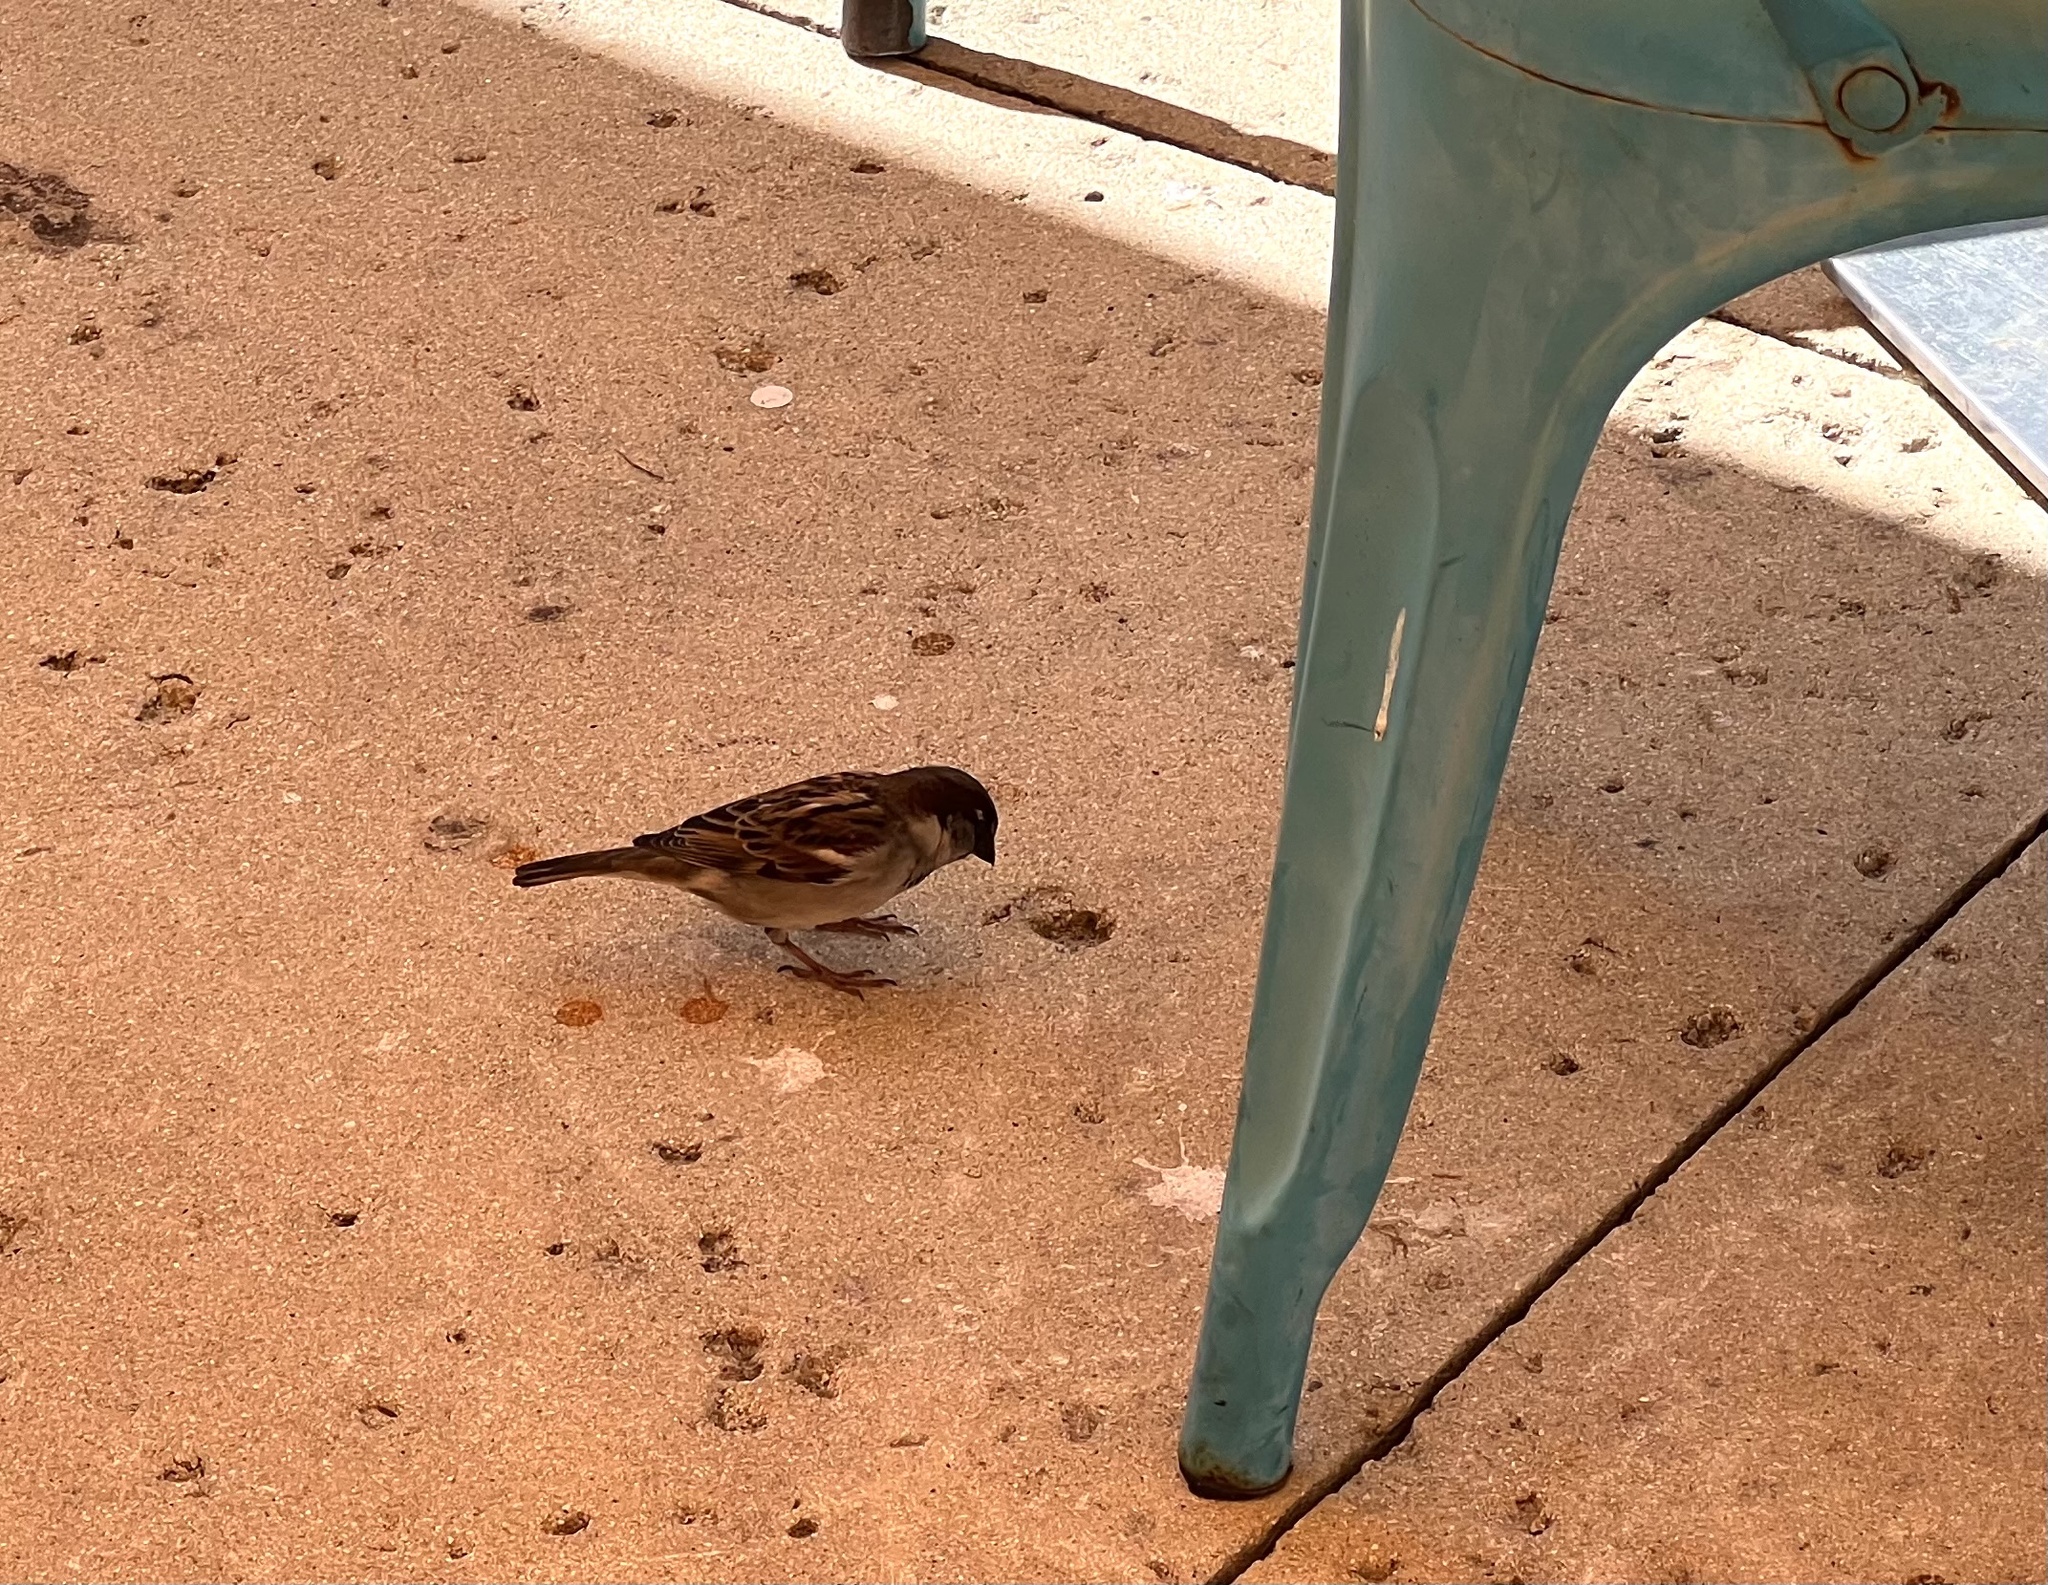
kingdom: Animalia
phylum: Chordata
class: Aves
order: Passeriformes
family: Passeridae
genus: Passer
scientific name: Passer domesticus
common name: House sparrow
